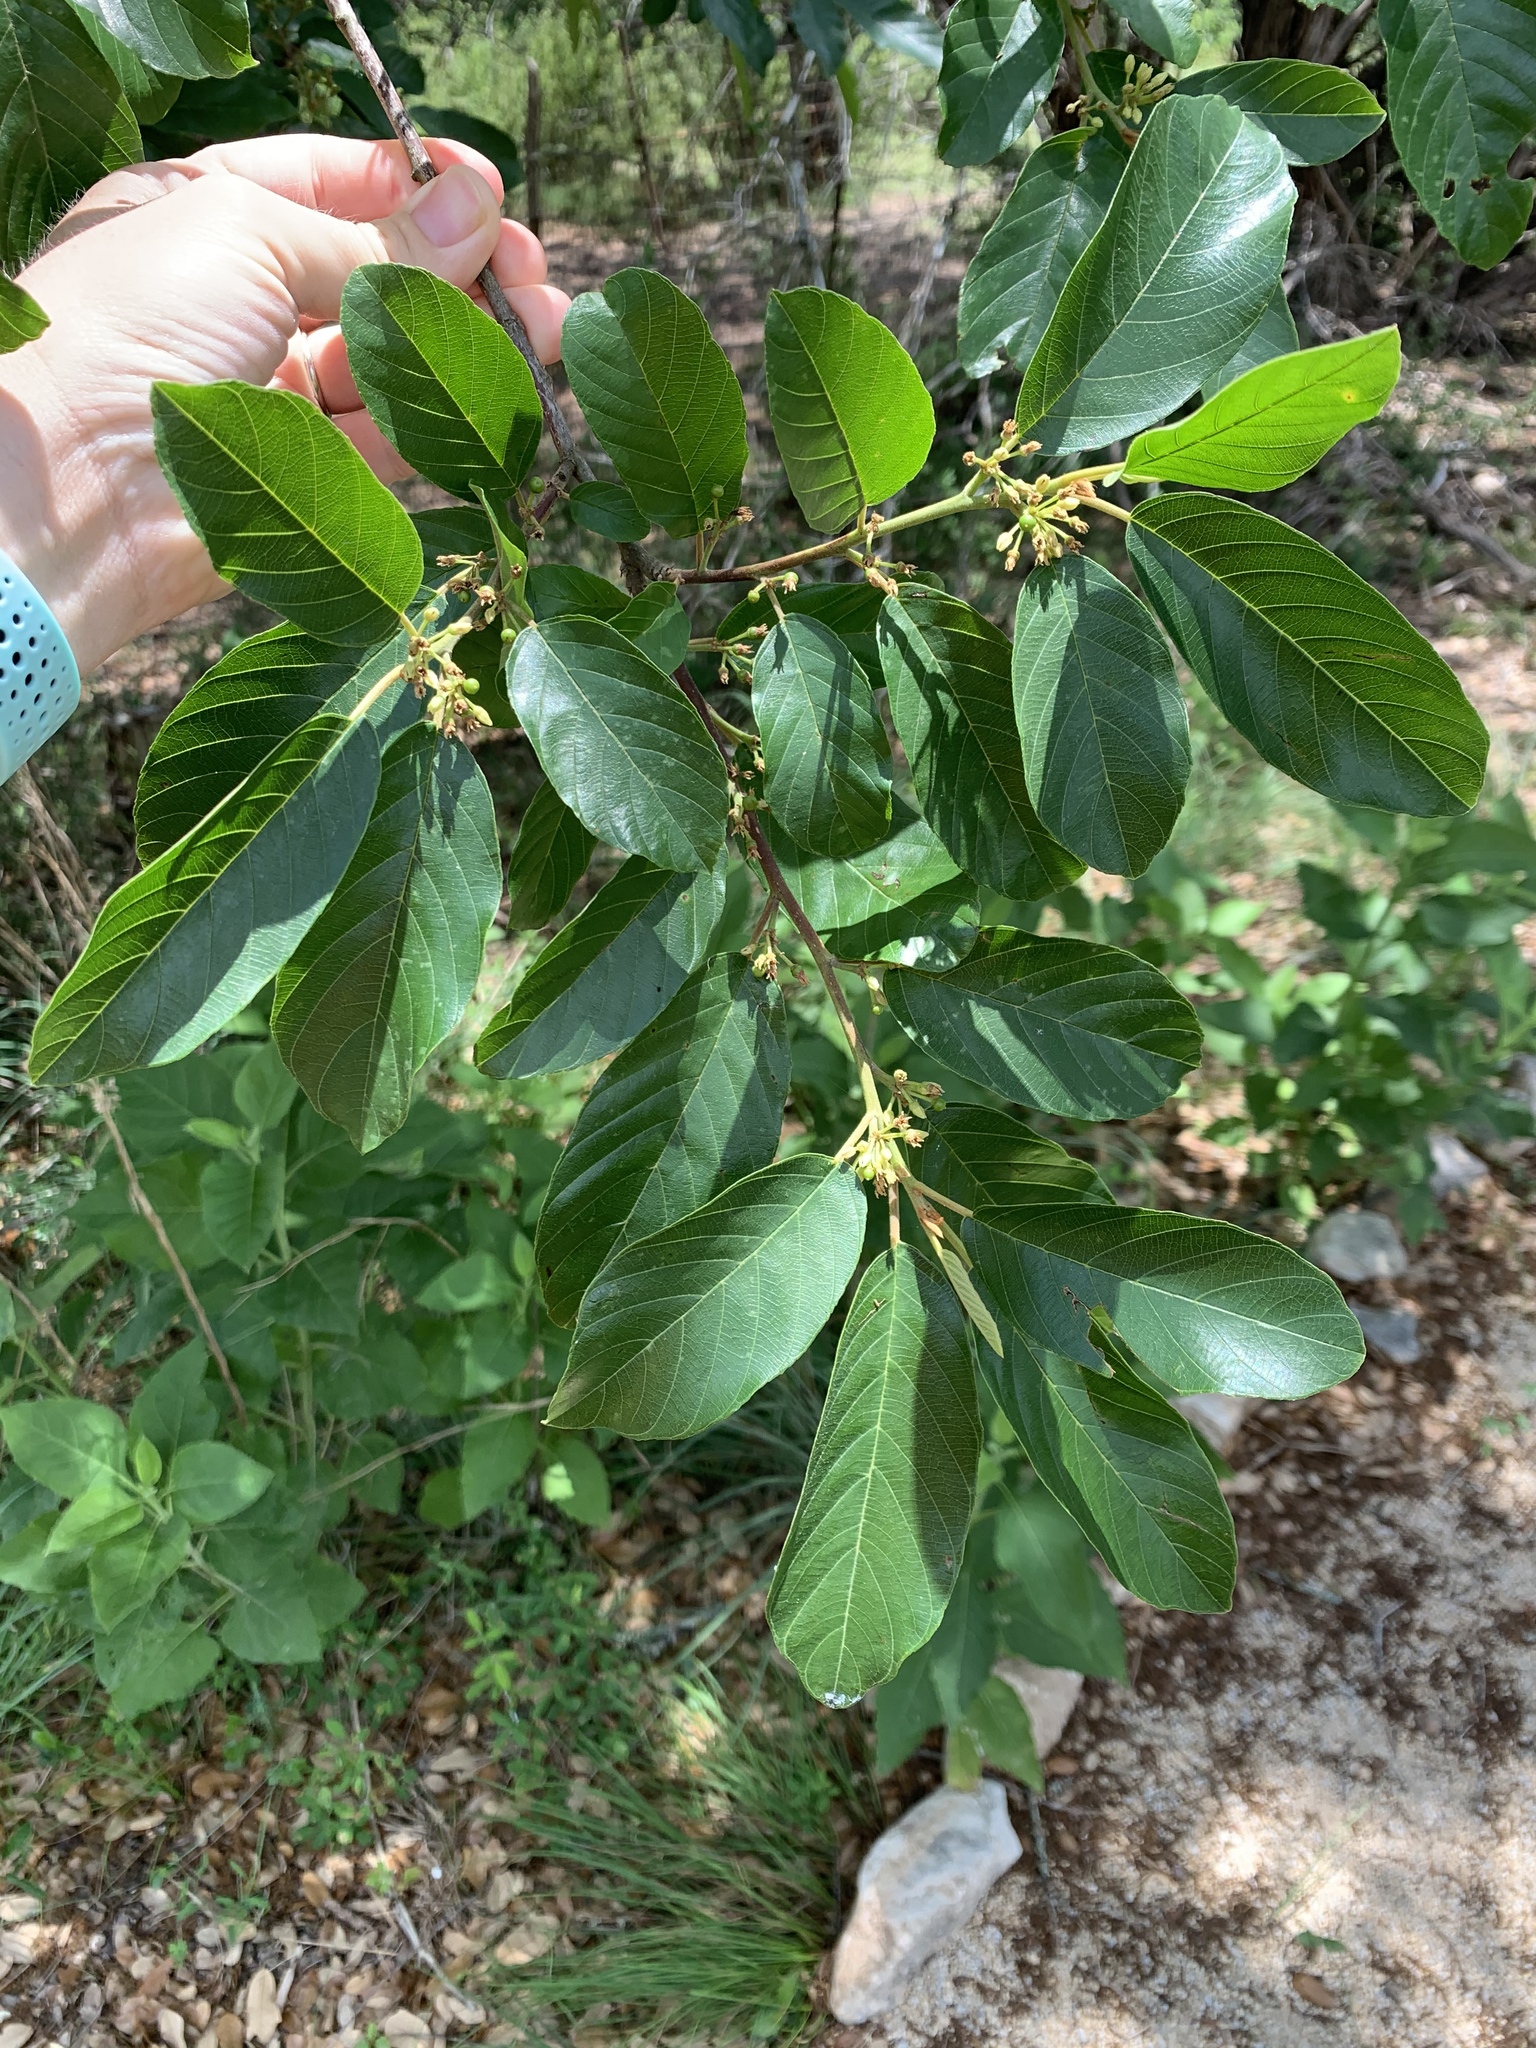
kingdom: Plantae
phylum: Tracheophyta
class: Magnoliopsida
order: Rosales
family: Rhamnaceae
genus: Frangula
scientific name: Frangula caroliniana
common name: Carolina buckthorn
